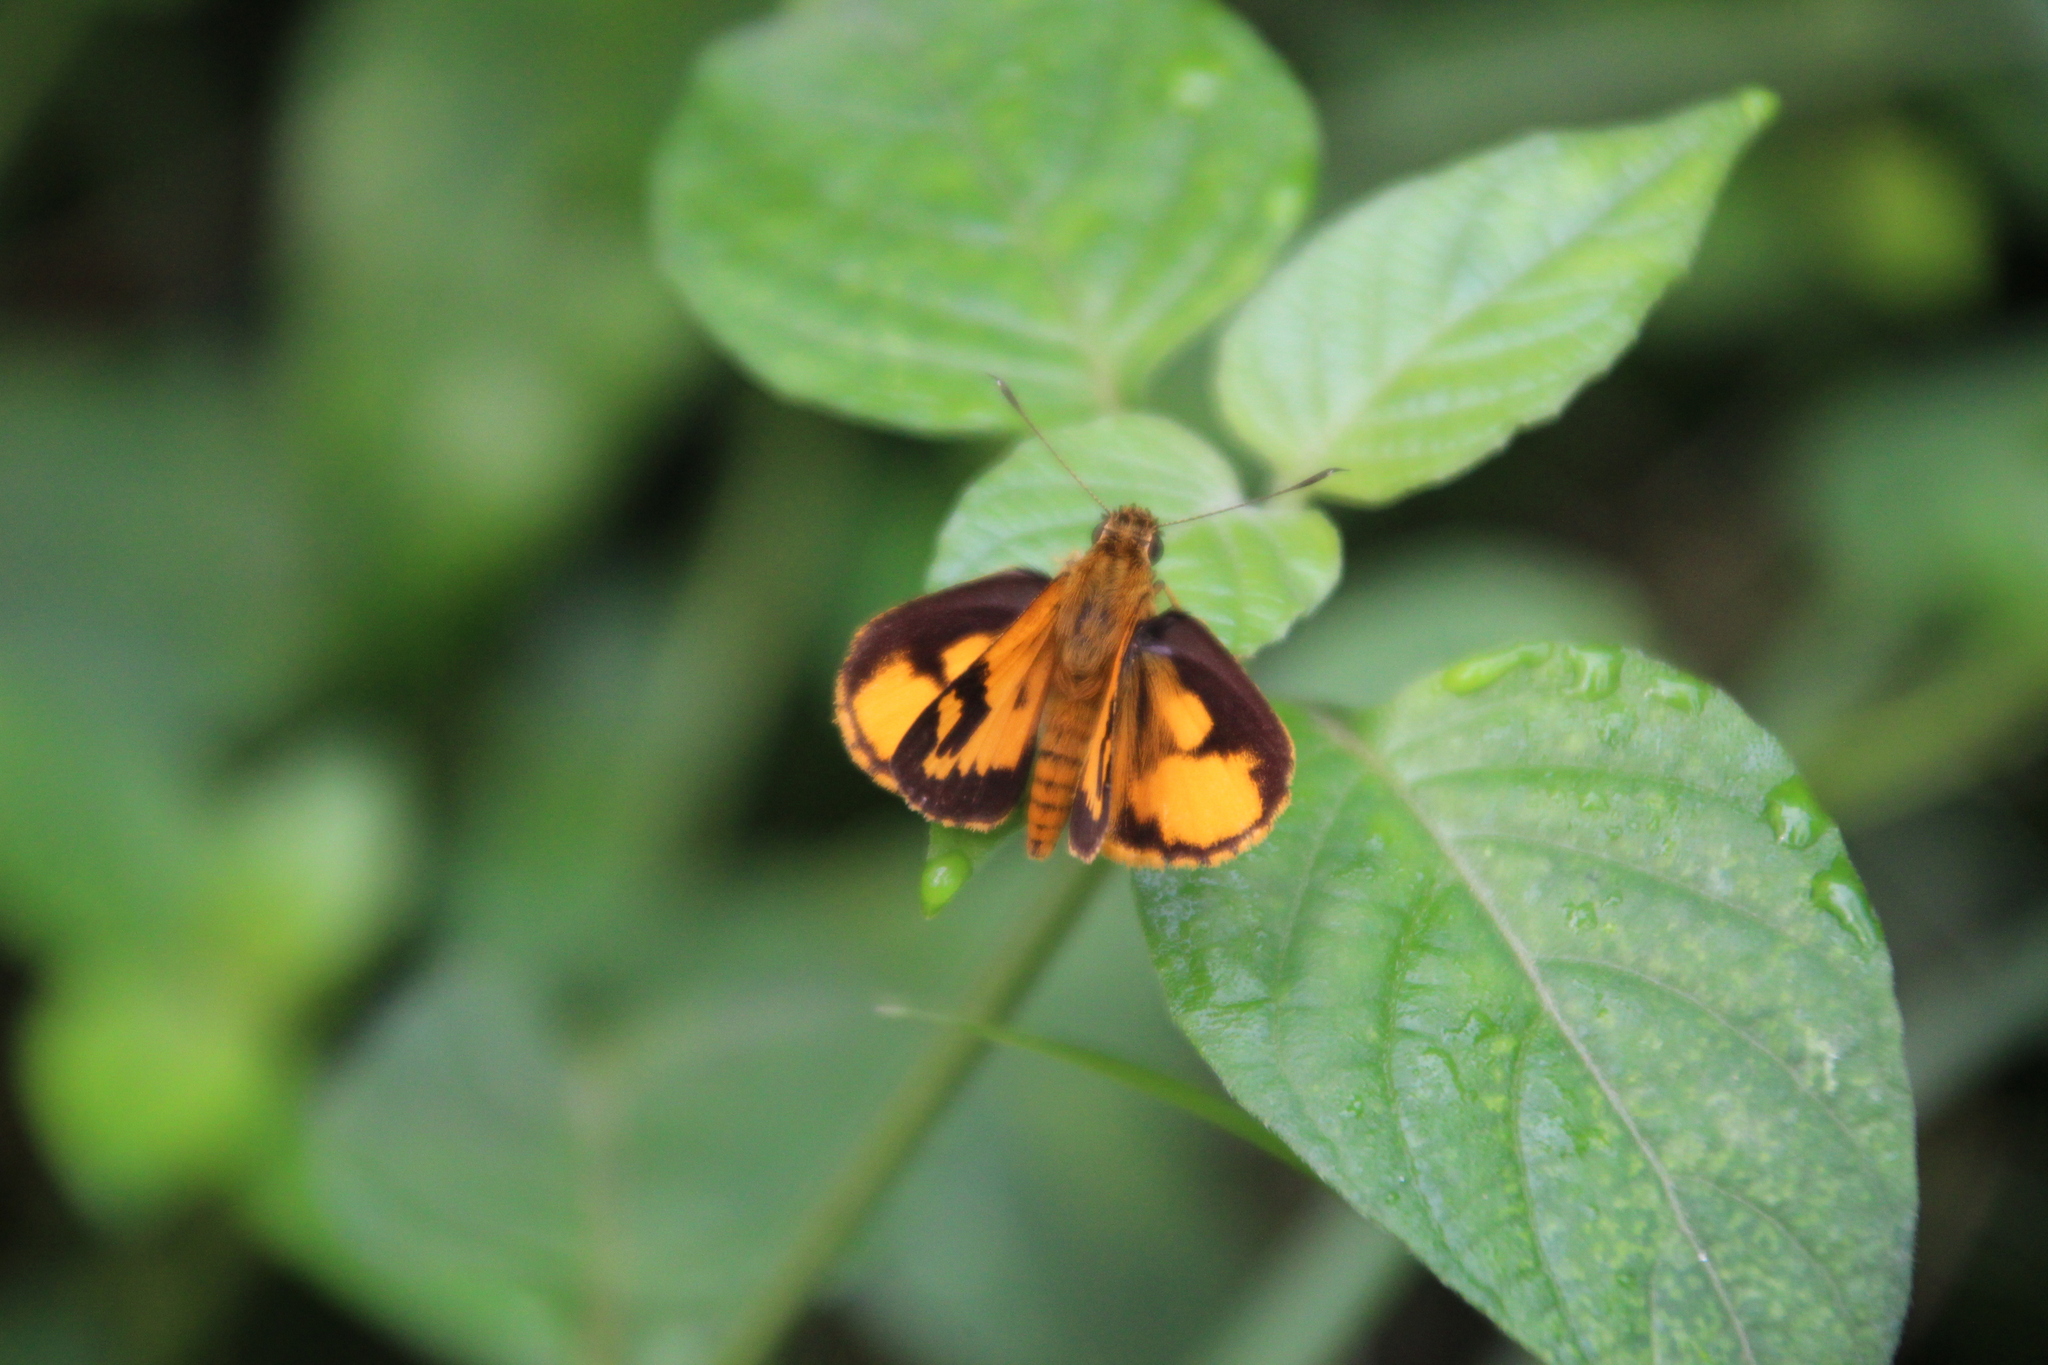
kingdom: Animalia
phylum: Arthropoda
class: Insecta
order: Lepidoptera
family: Hesperiidae
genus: Pardaleodes
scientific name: Pardaleodes incerta
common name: Savanna pathfinder
